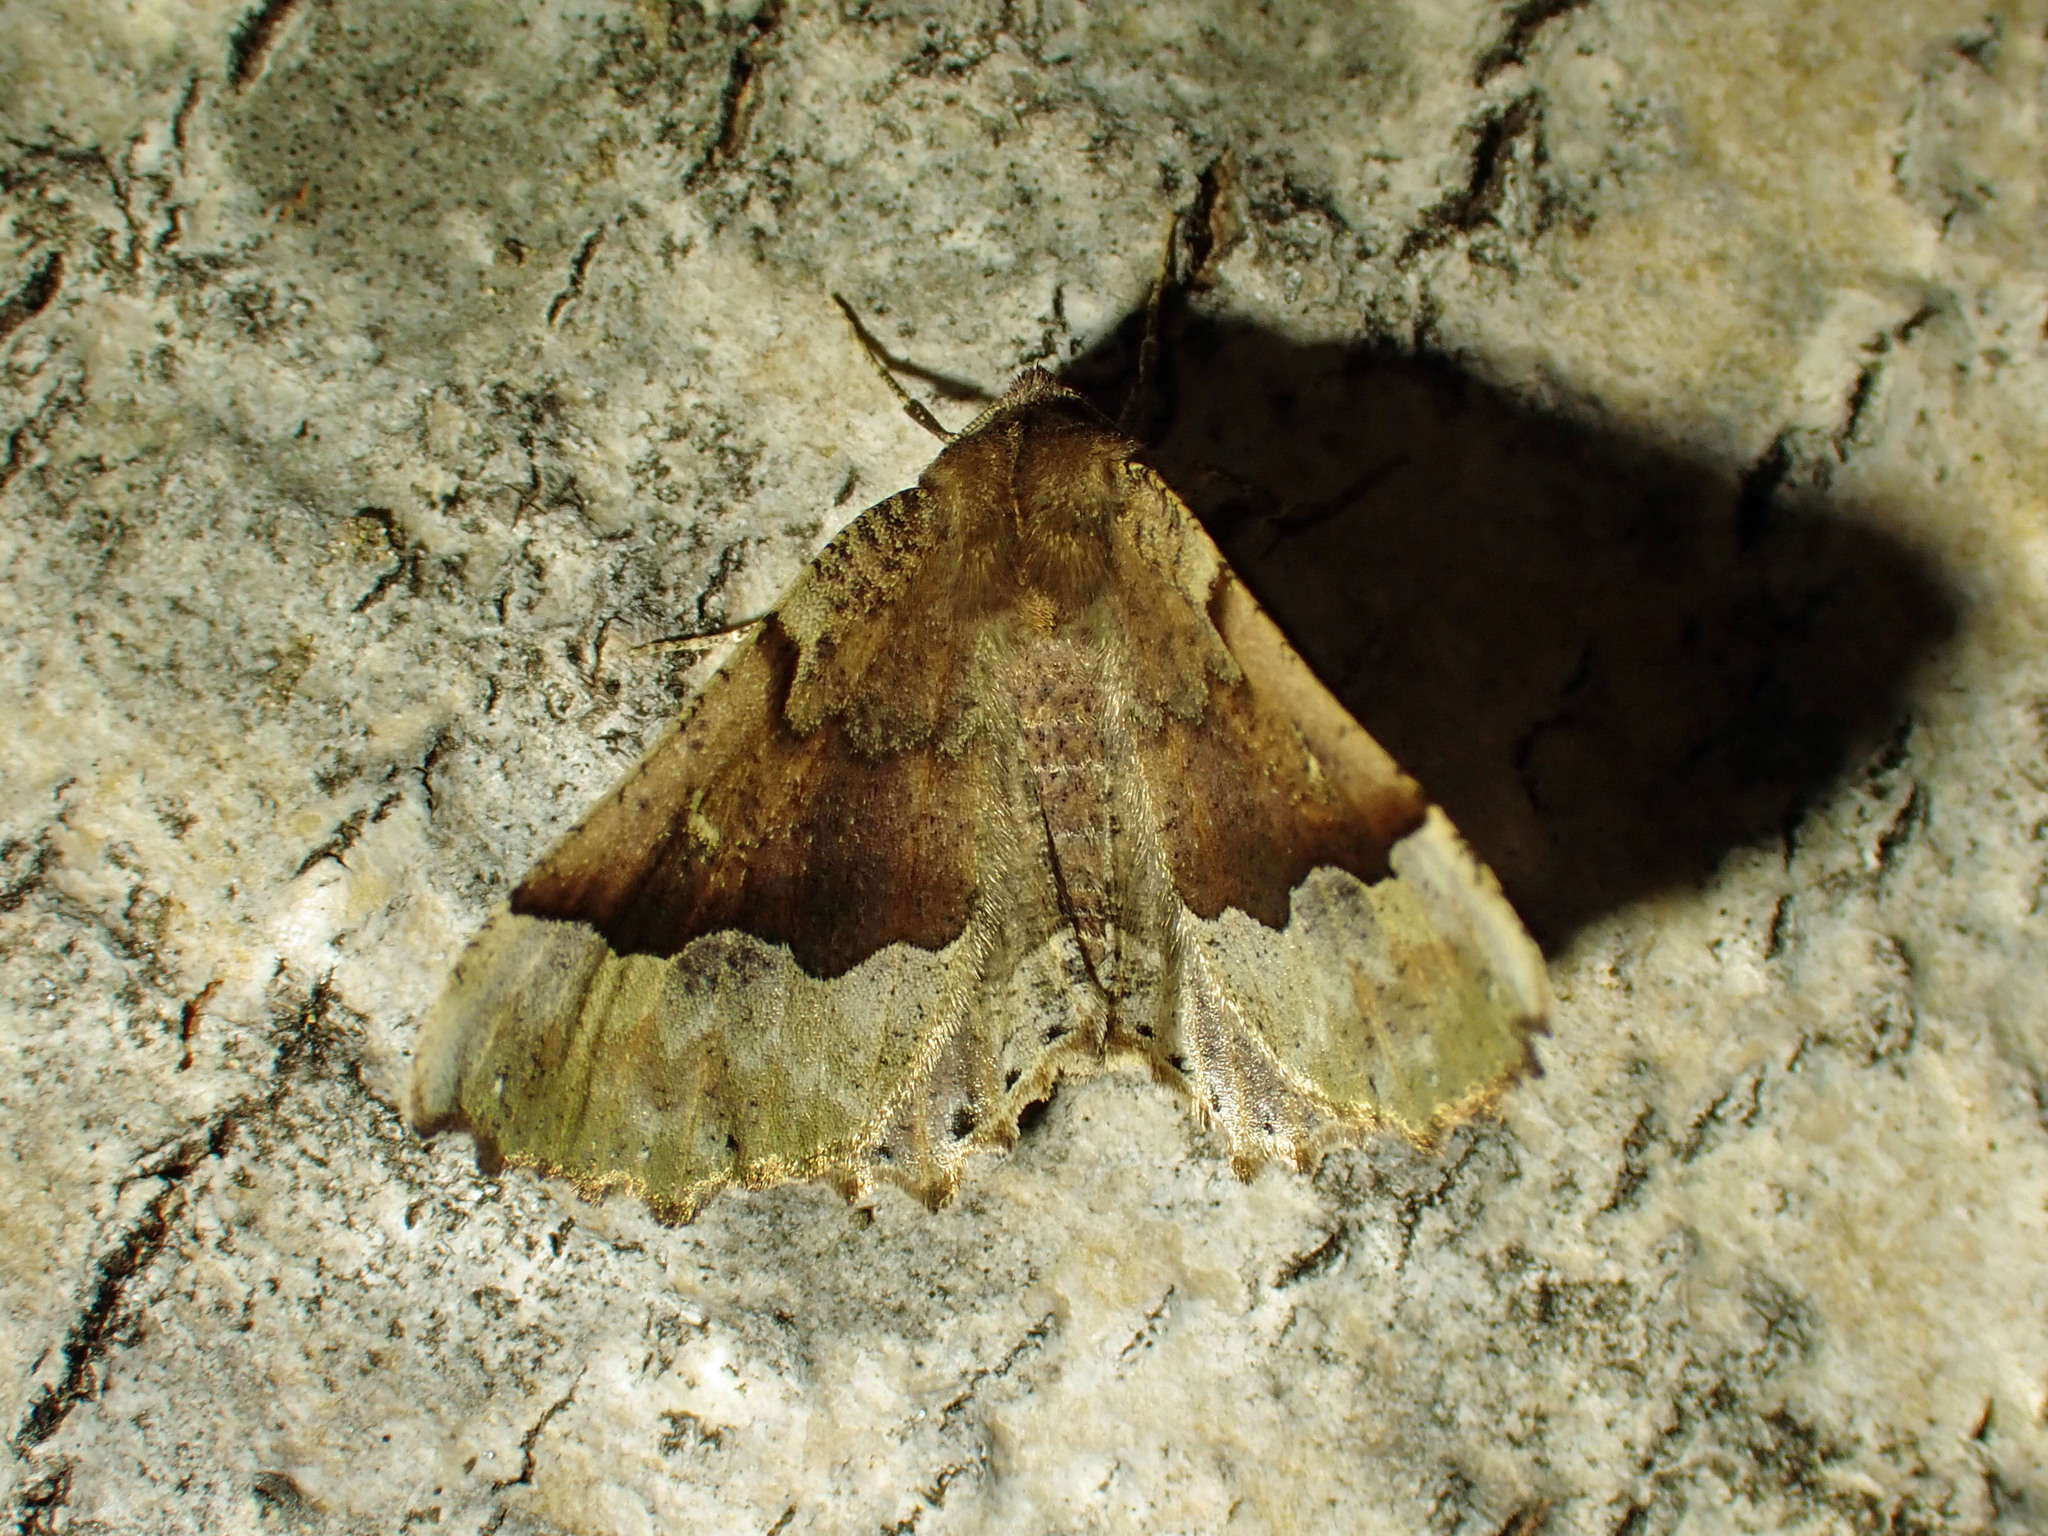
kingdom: Animalia
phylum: Arthropoda
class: Insecta
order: Lepidoptera
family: Geometridae
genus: Pero
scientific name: Pero morrisonaria
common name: Morrison's pero
